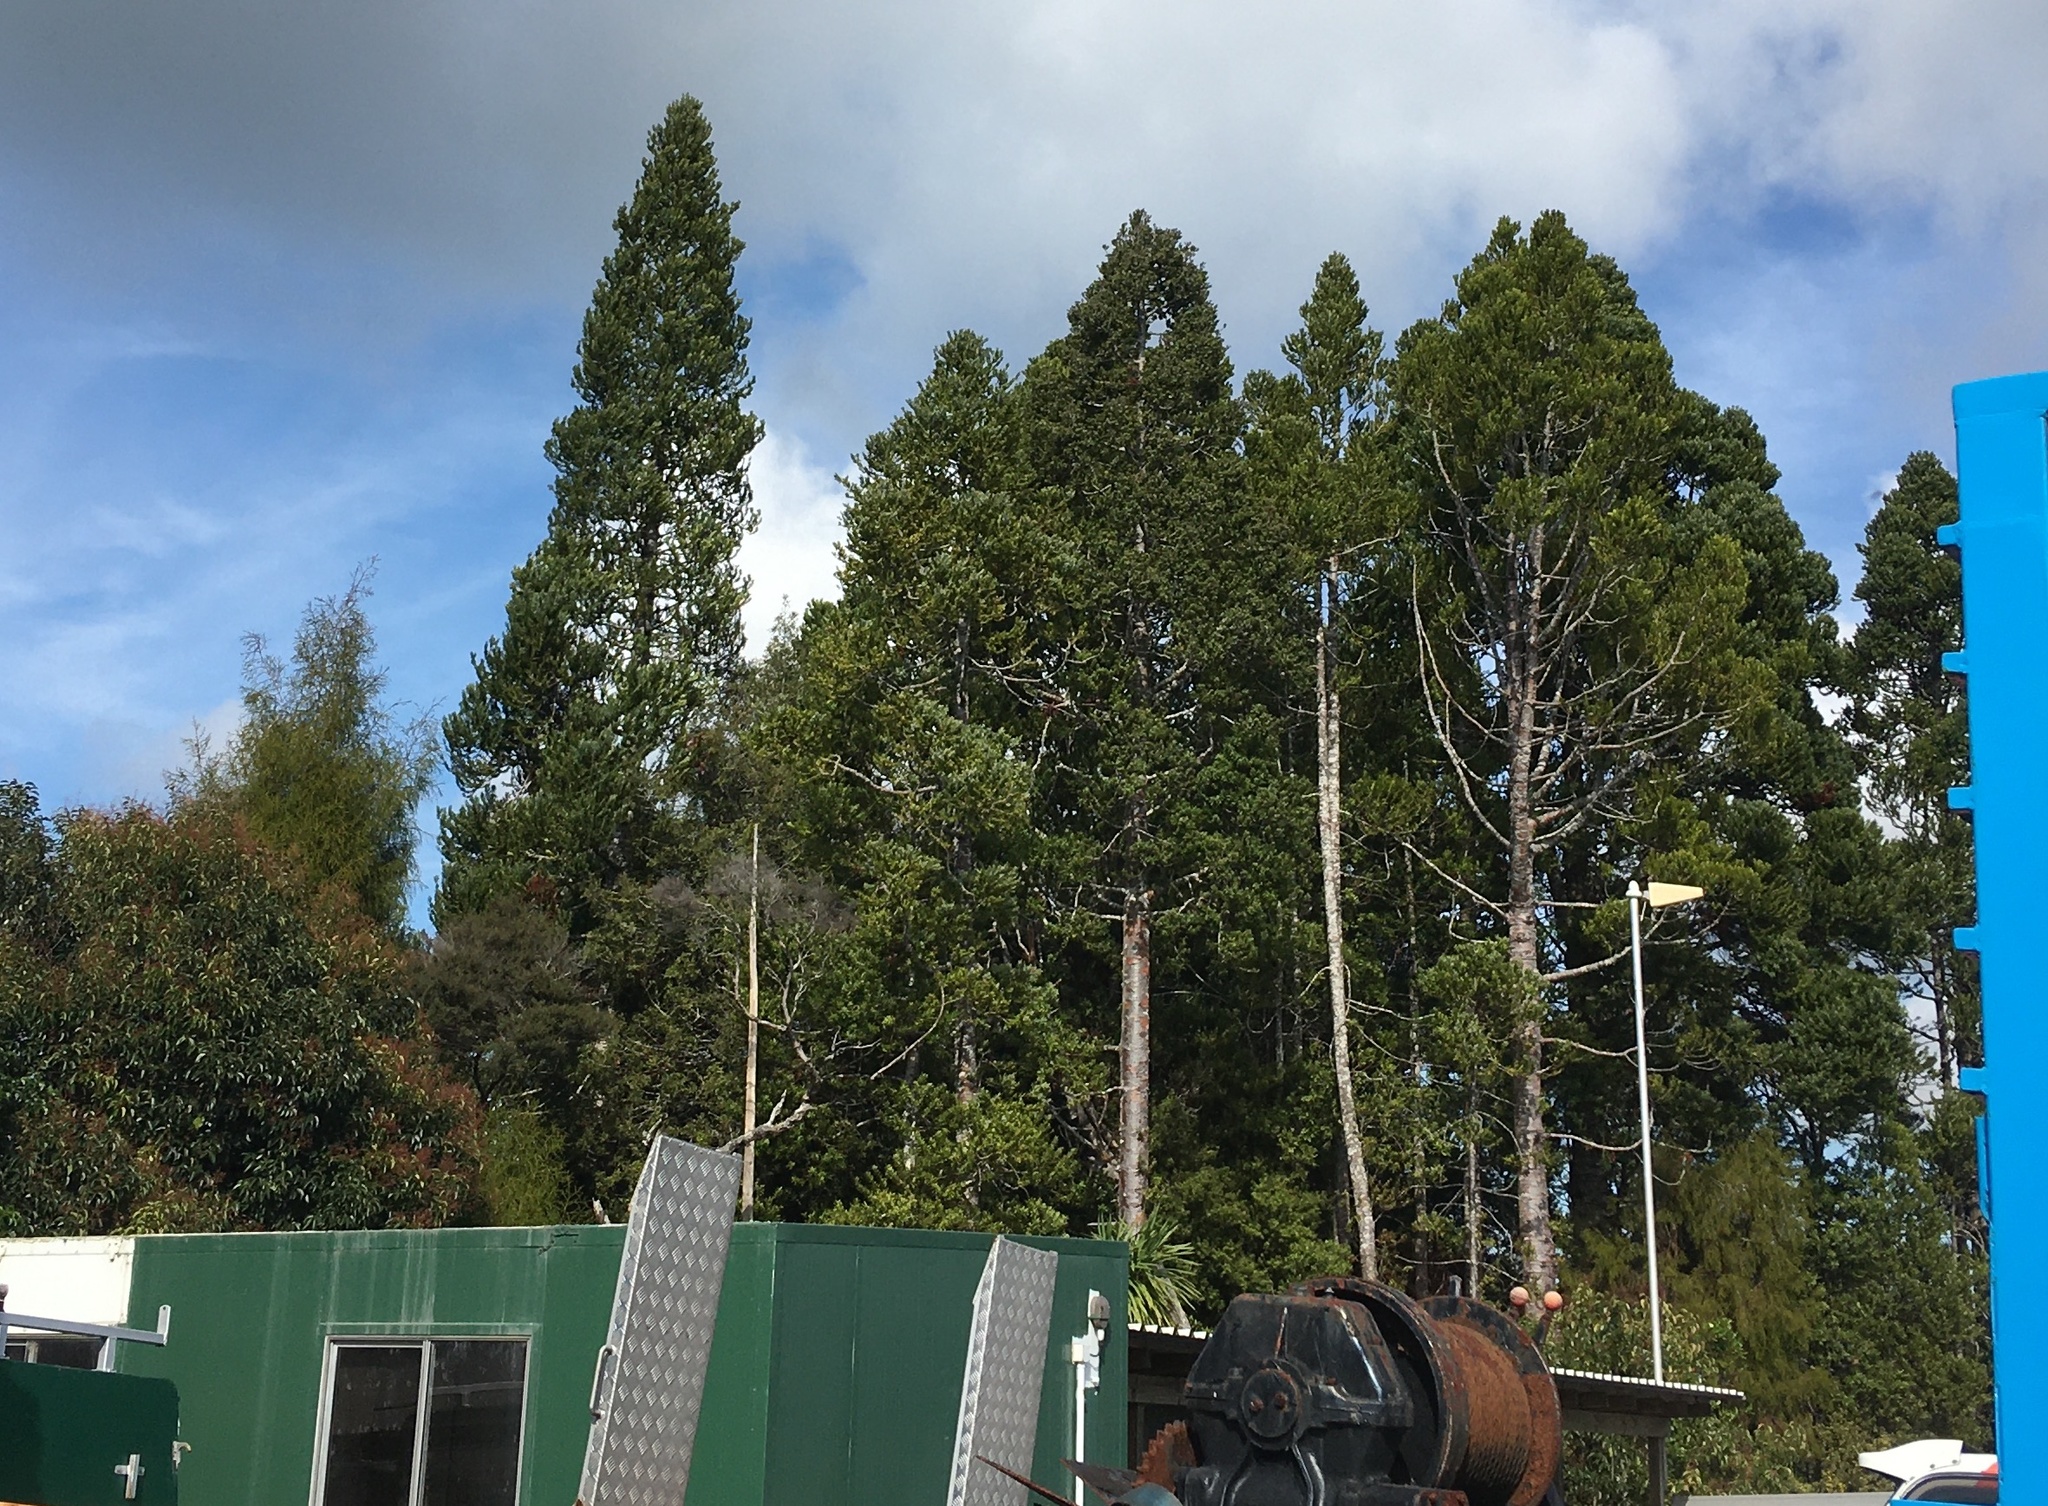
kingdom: Plantae
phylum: Tracheophyta
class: Pinopsida
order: Pinales
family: Araucariaceae
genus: Agathis
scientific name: Agathis australis
